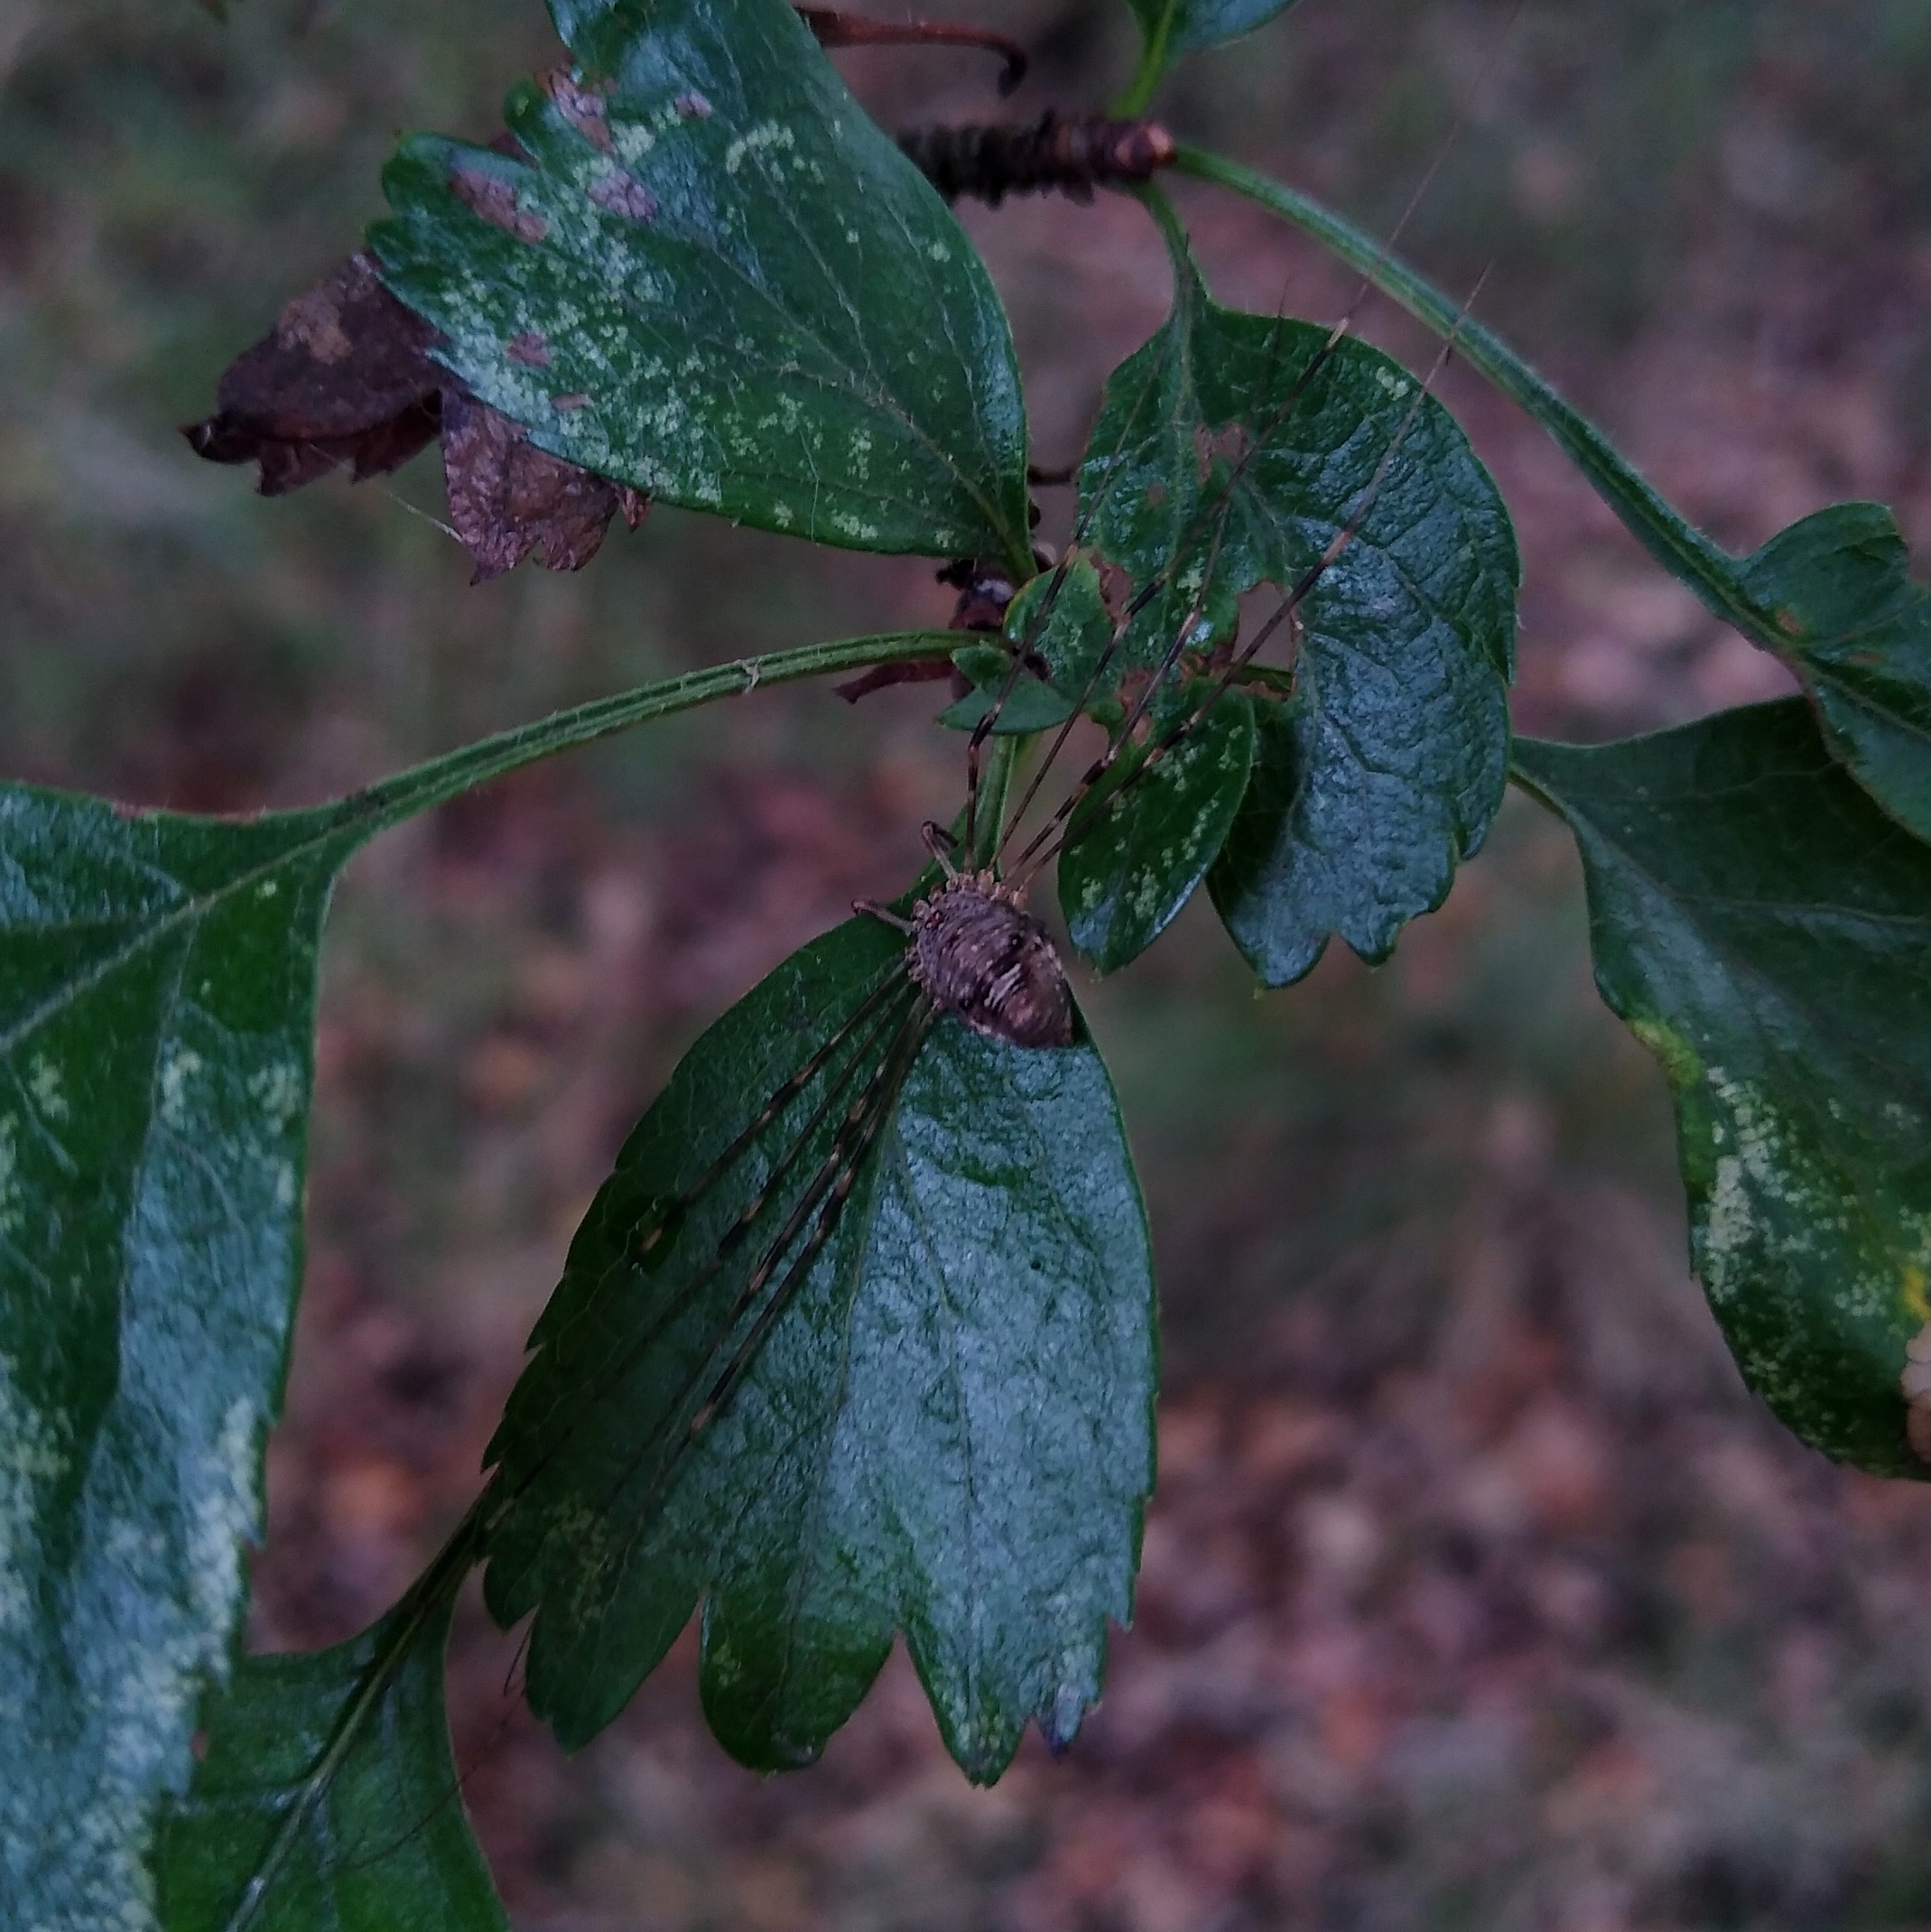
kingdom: Animalia
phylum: Arthropoda
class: Arachnida
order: Opiliones
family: Phalangiidae
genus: Dicranopalpus
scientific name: Dicranopalpus ramosus
